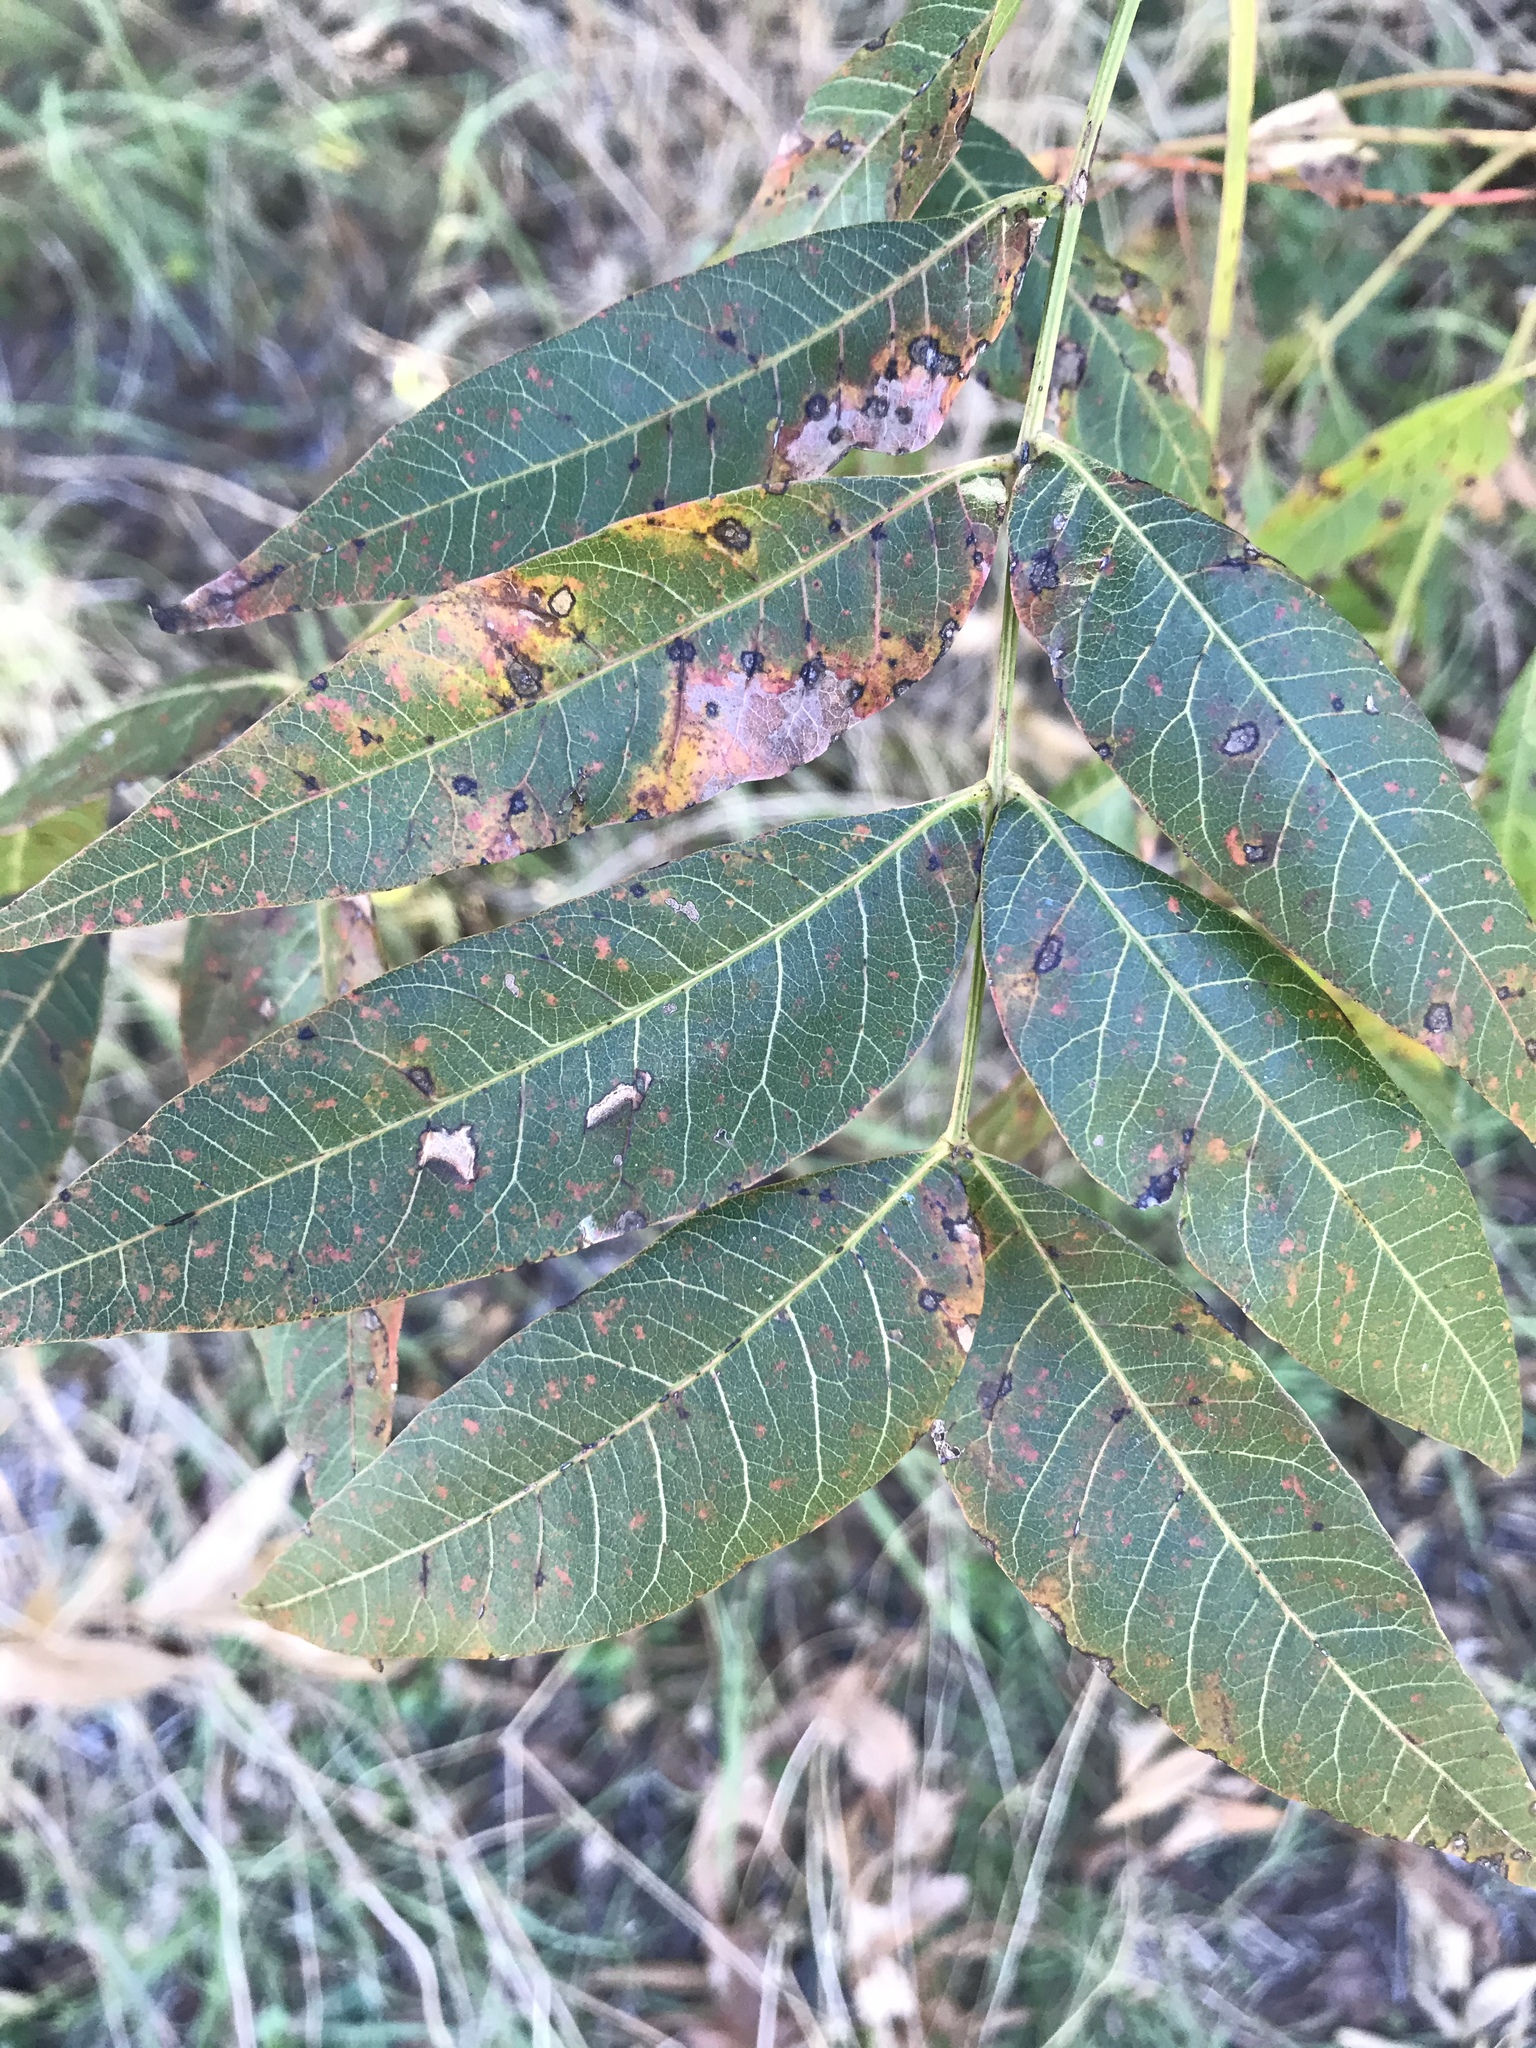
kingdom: Plantae
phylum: Tracheophyta
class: Magnoliopsida
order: Sapindales
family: Anacardiaceae
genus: Pistacia
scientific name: Pistacia chinensis
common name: Chinese pistache
